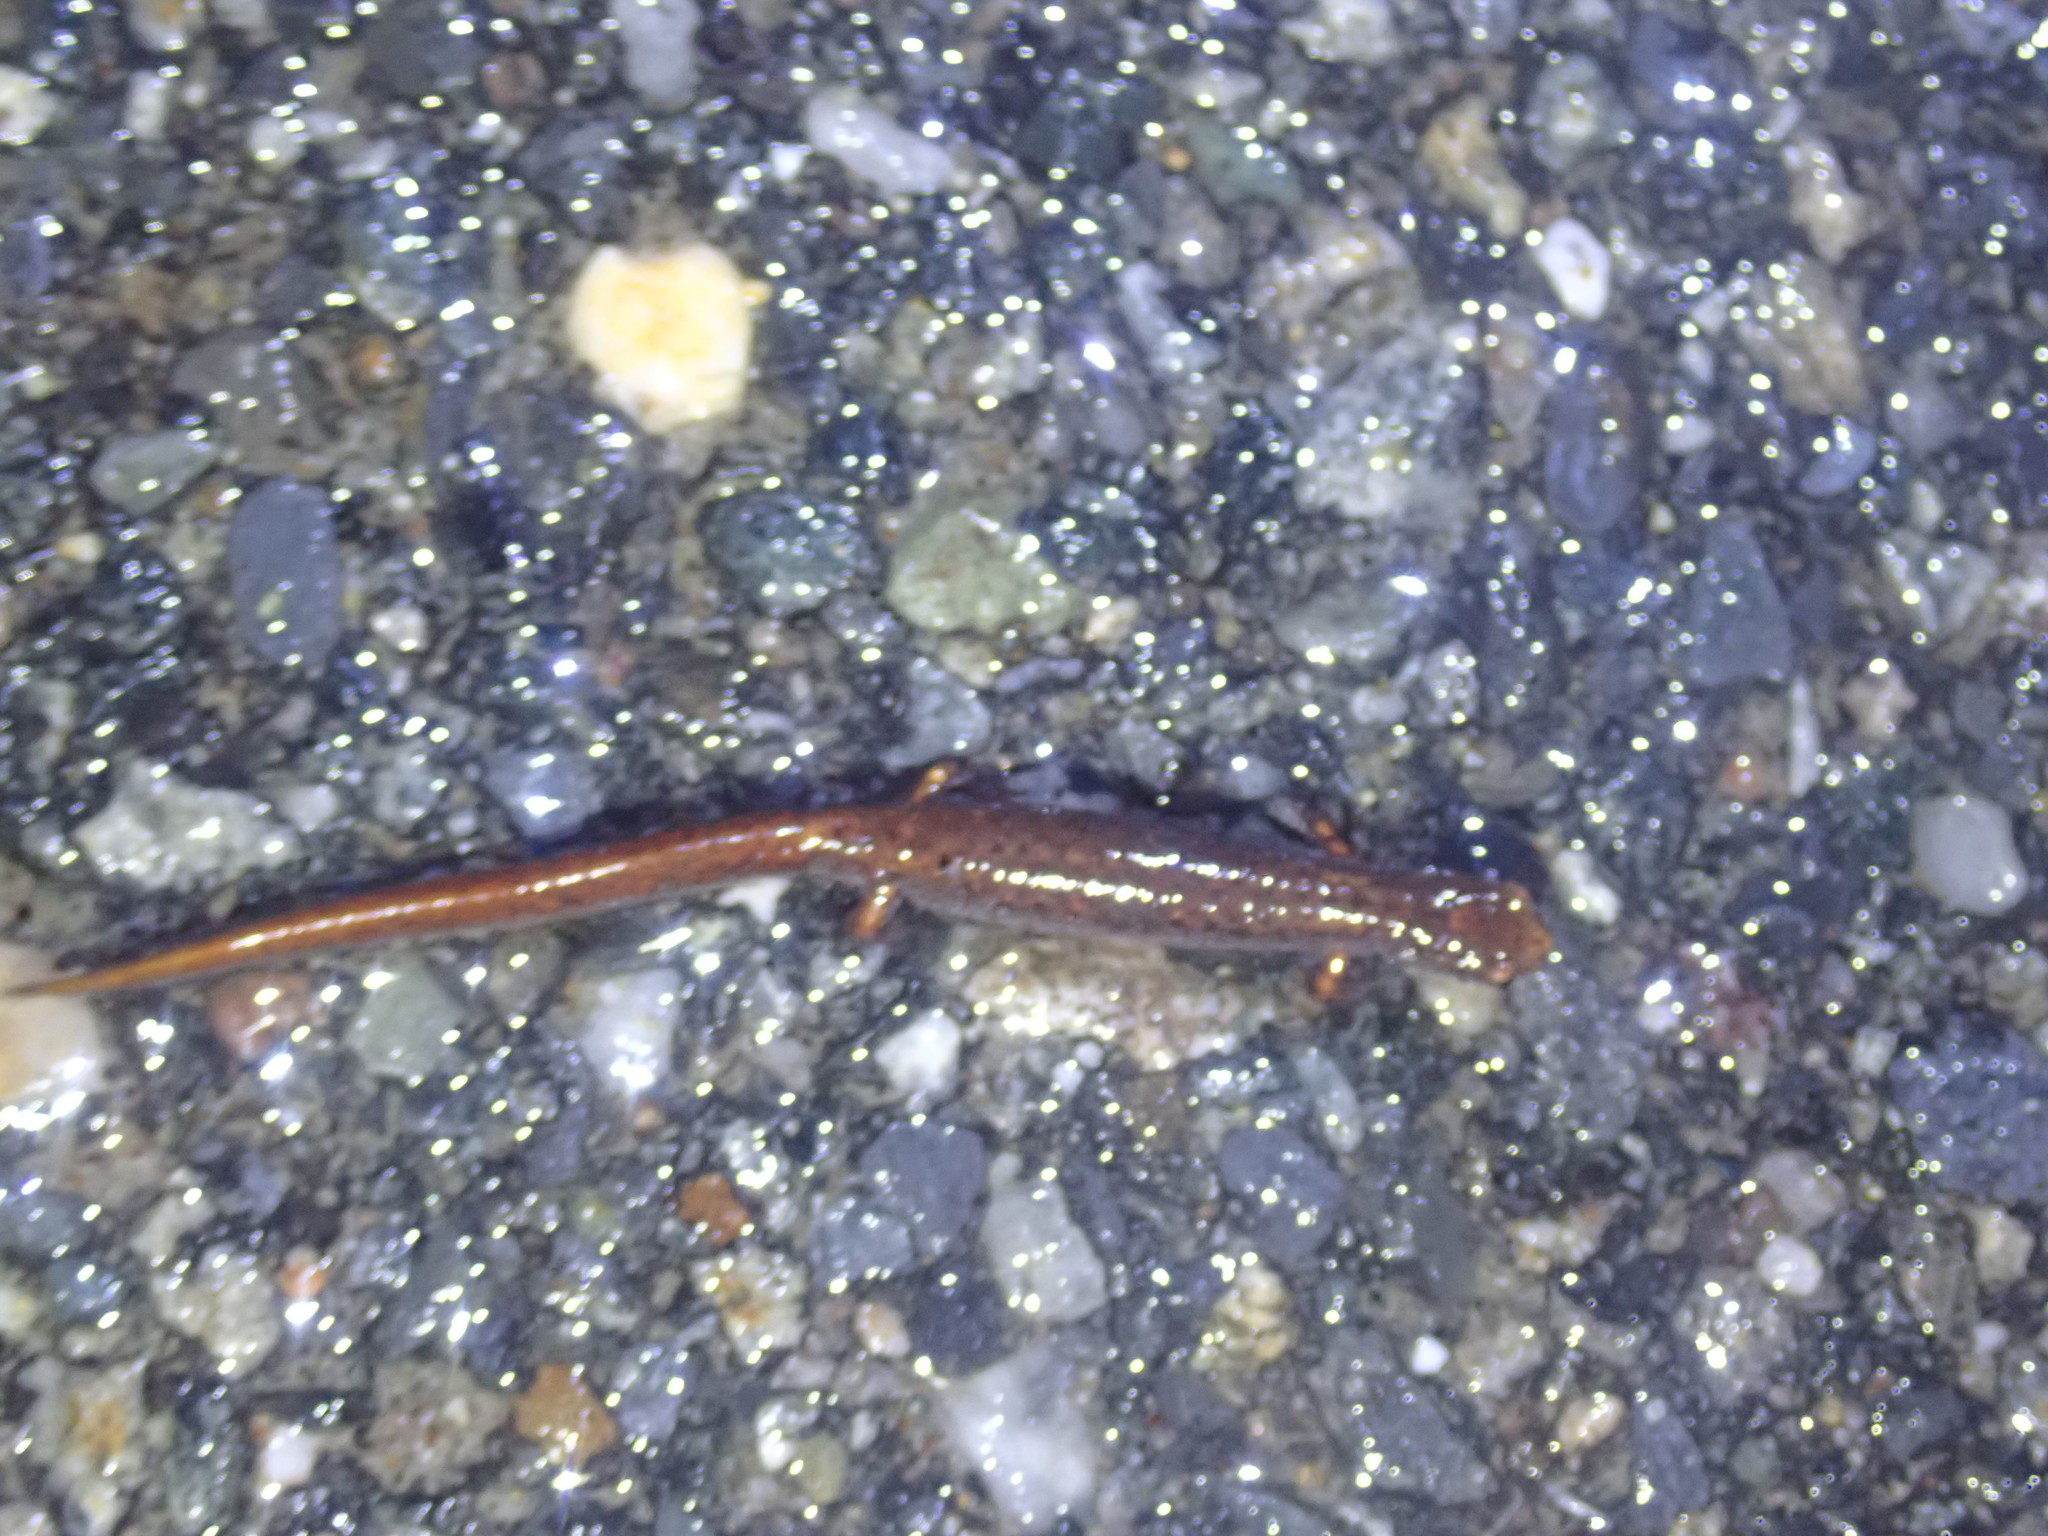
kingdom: Animalia
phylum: Chordata
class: Amphibia
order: Caudata
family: Plethodontidae
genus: Hemidactylium
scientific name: Hemidactylium scutatum
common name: Four-toed salamander
